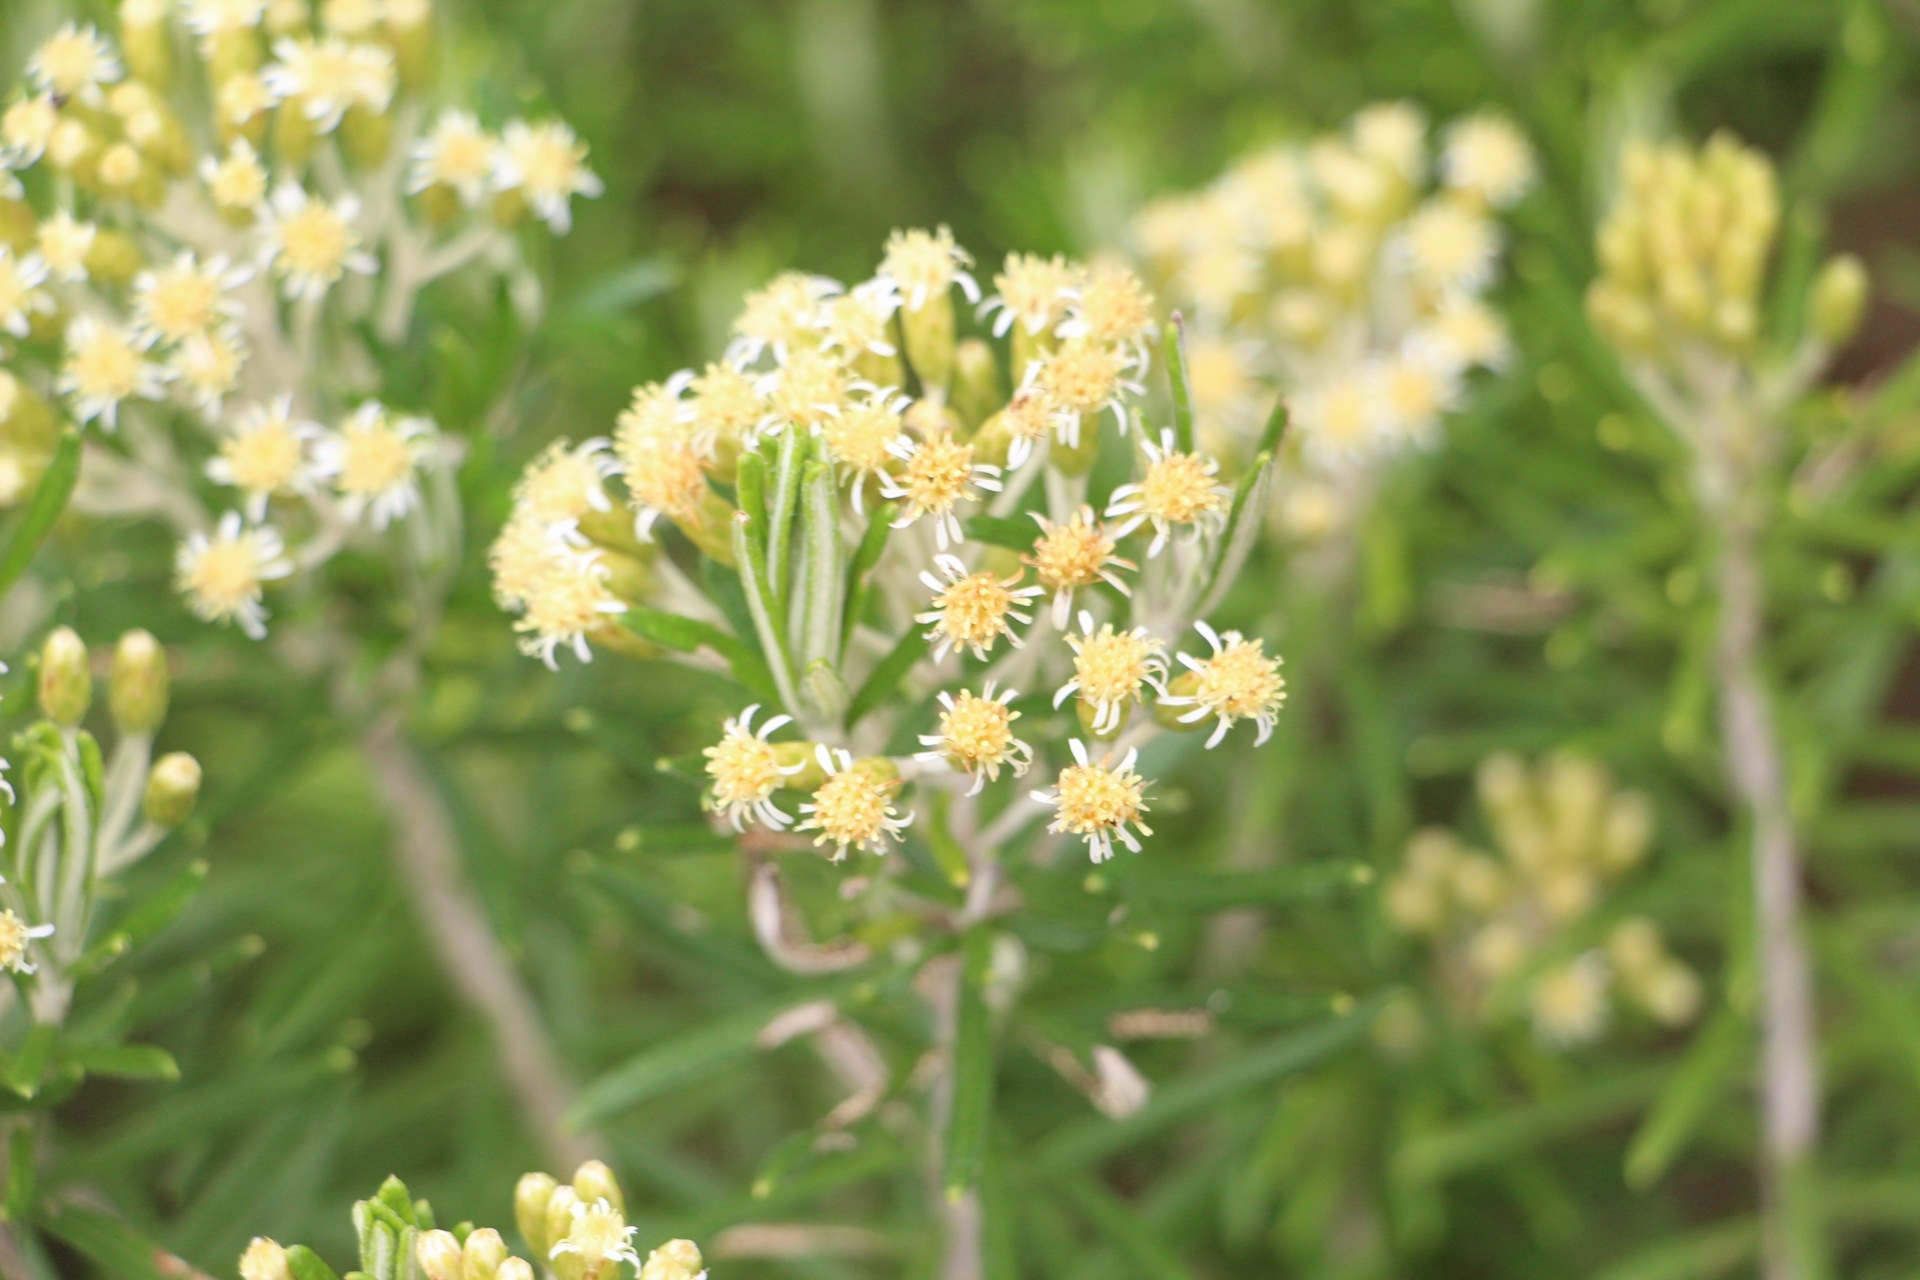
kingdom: Plantae
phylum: Tracheophyta
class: Magnoliopsida
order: Asterales
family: Asteraceae
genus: Linochilus
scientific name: Linochilus rosmarinifolius
